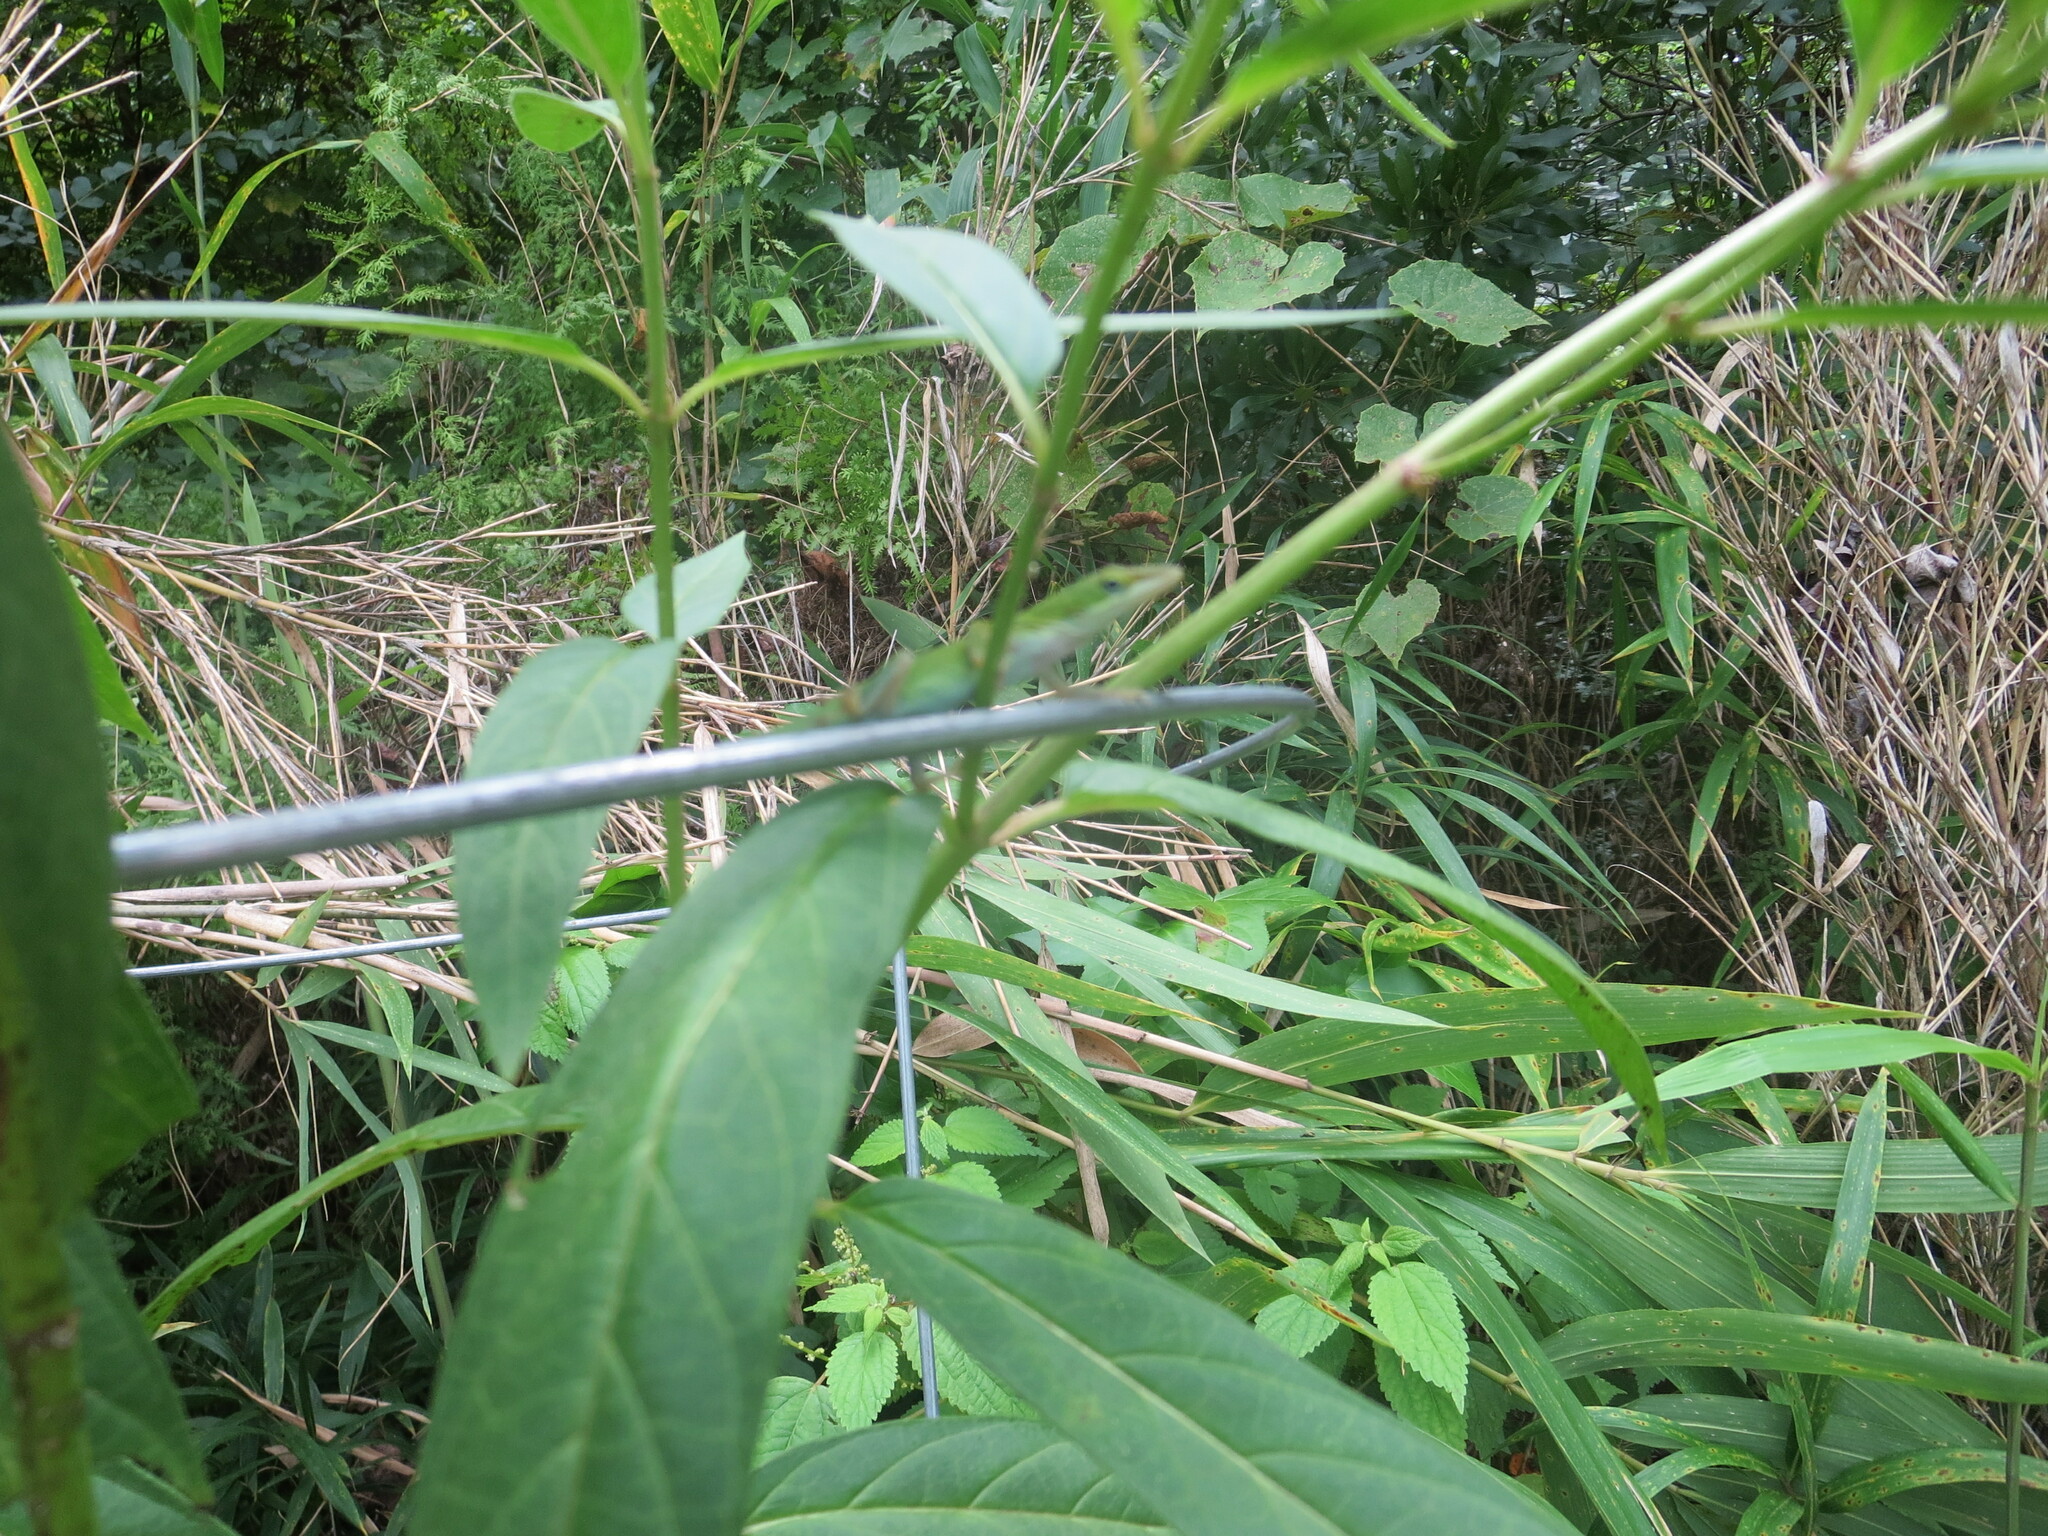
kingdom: Animalia
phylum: Chordata
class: Squamata
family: Dactyloidae
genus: Anolis
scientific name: Anolis carolinensis
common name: Green anole
